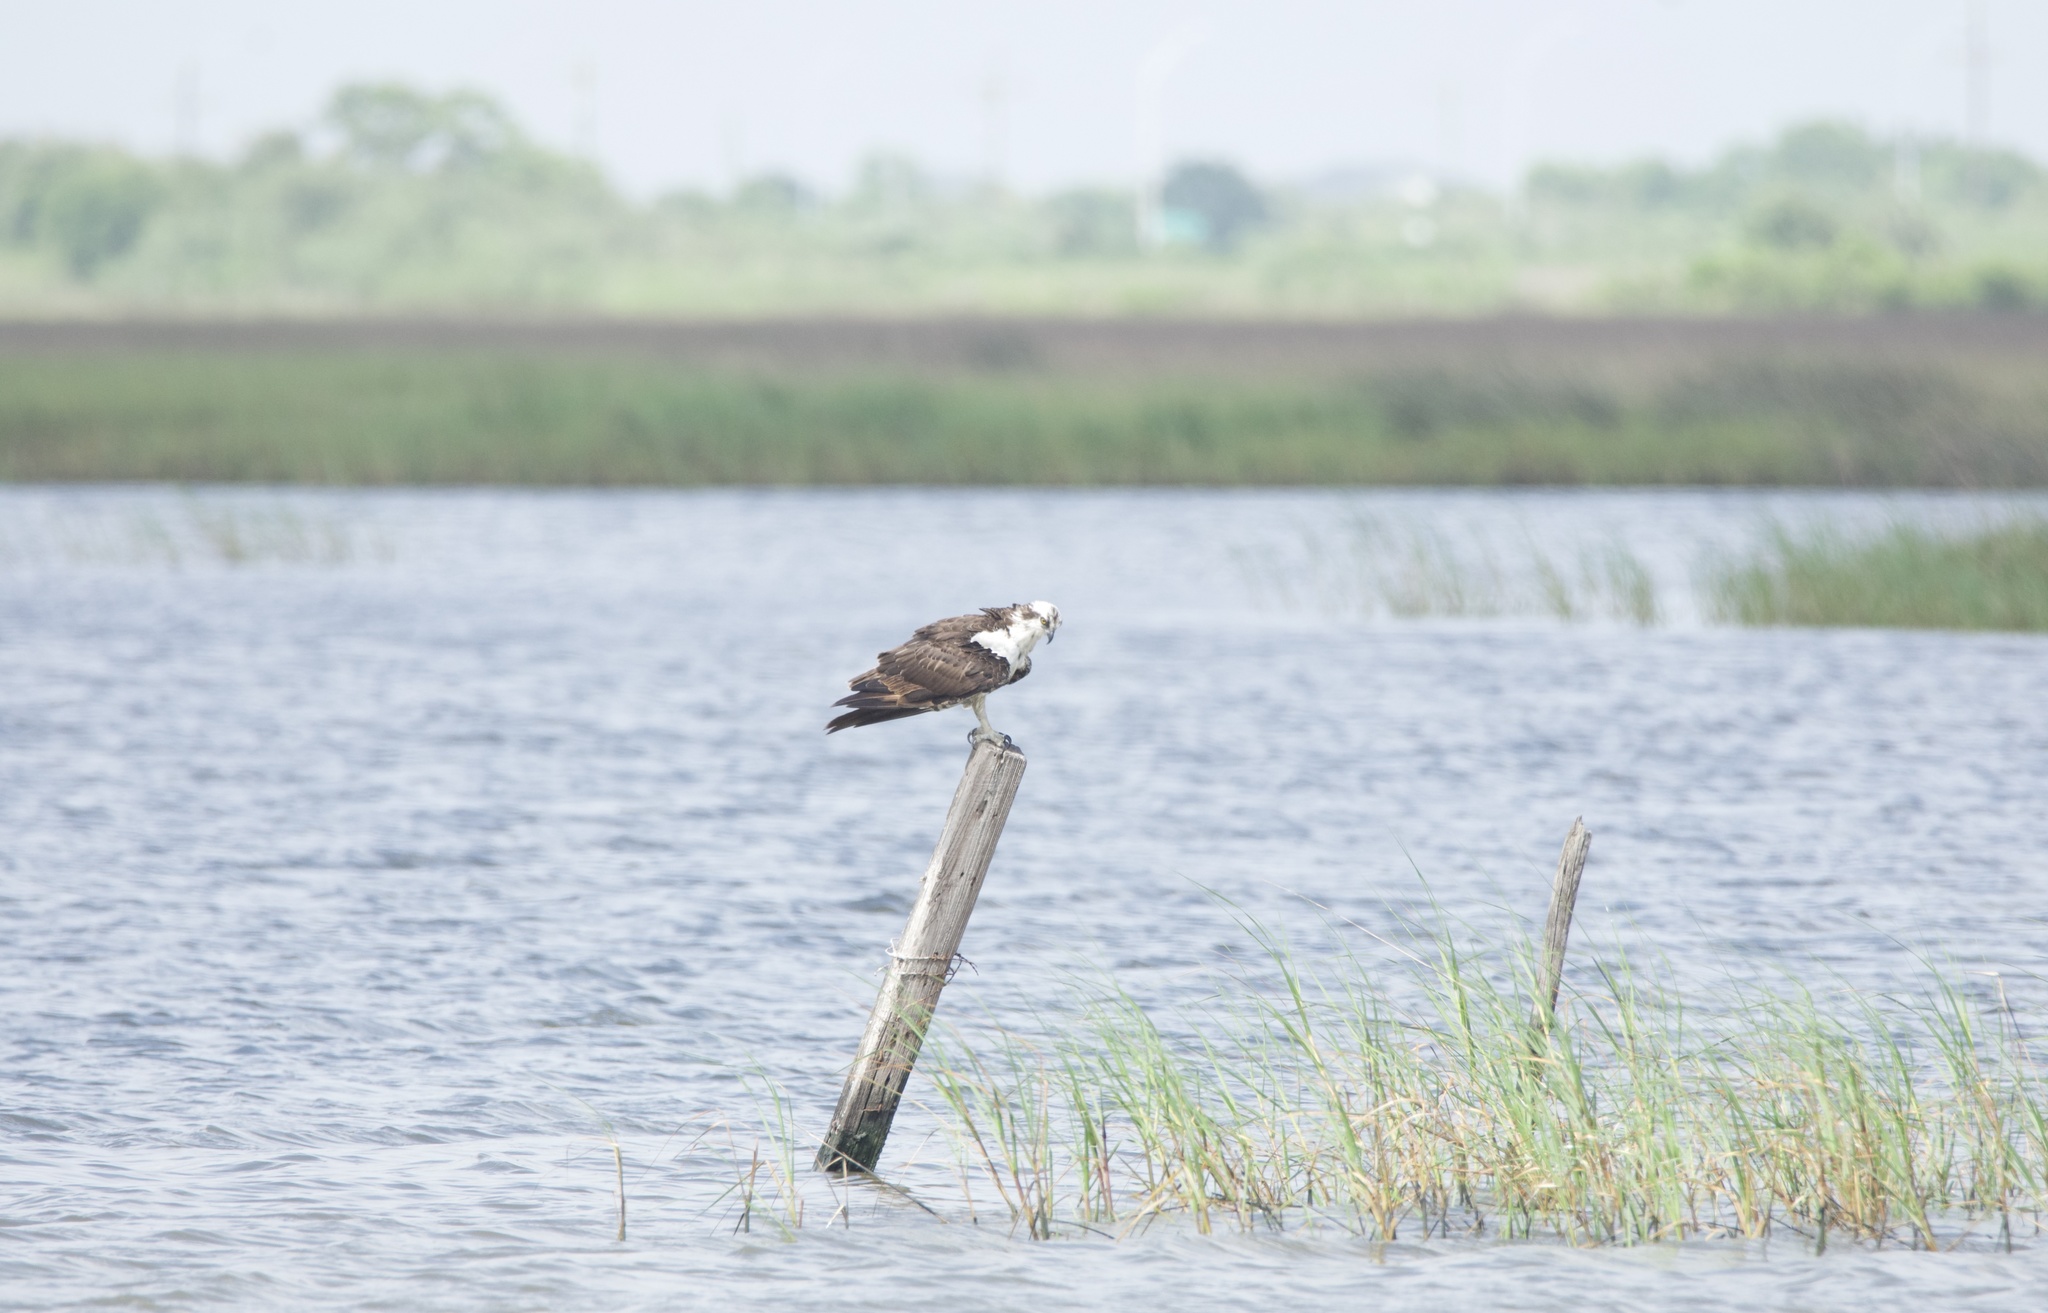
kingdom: Animalia
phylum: Chordata
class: Aves
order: Accipitriformes
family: Pandionidae
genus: Pandion
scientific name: Pandion haliaetus
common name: Osprey
